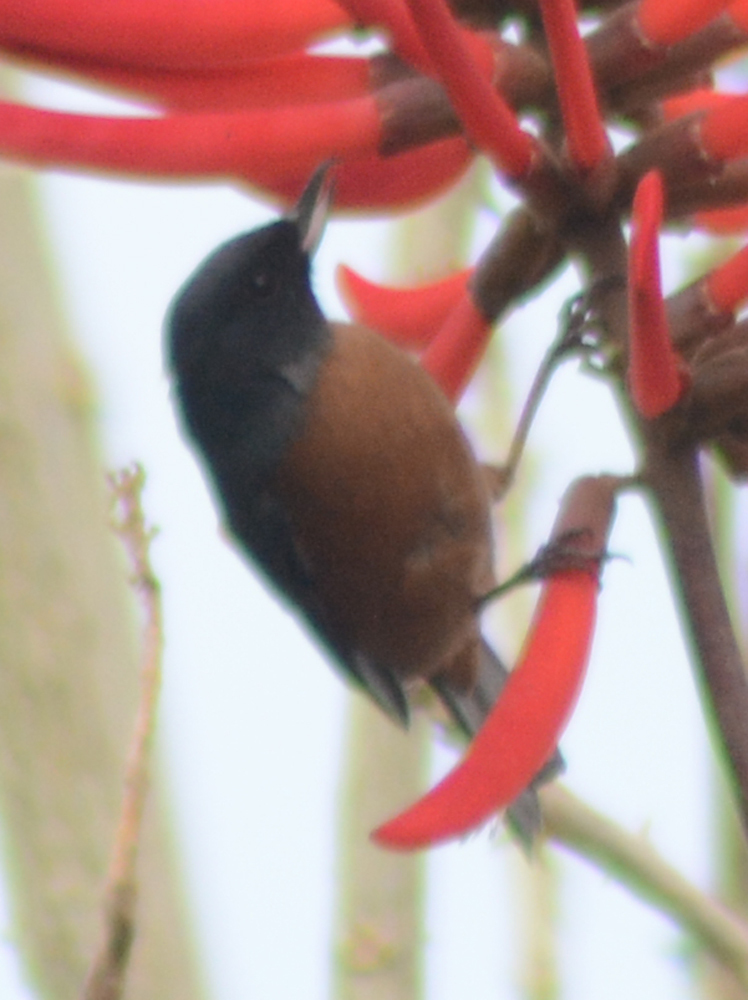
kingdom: Animalia
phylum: Chordata
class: Aves
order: Passeriformes
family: Thraupidae
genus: Diglossa
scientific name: Diglossa baritula
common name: Cinnamon-bellied flowerpiercer
